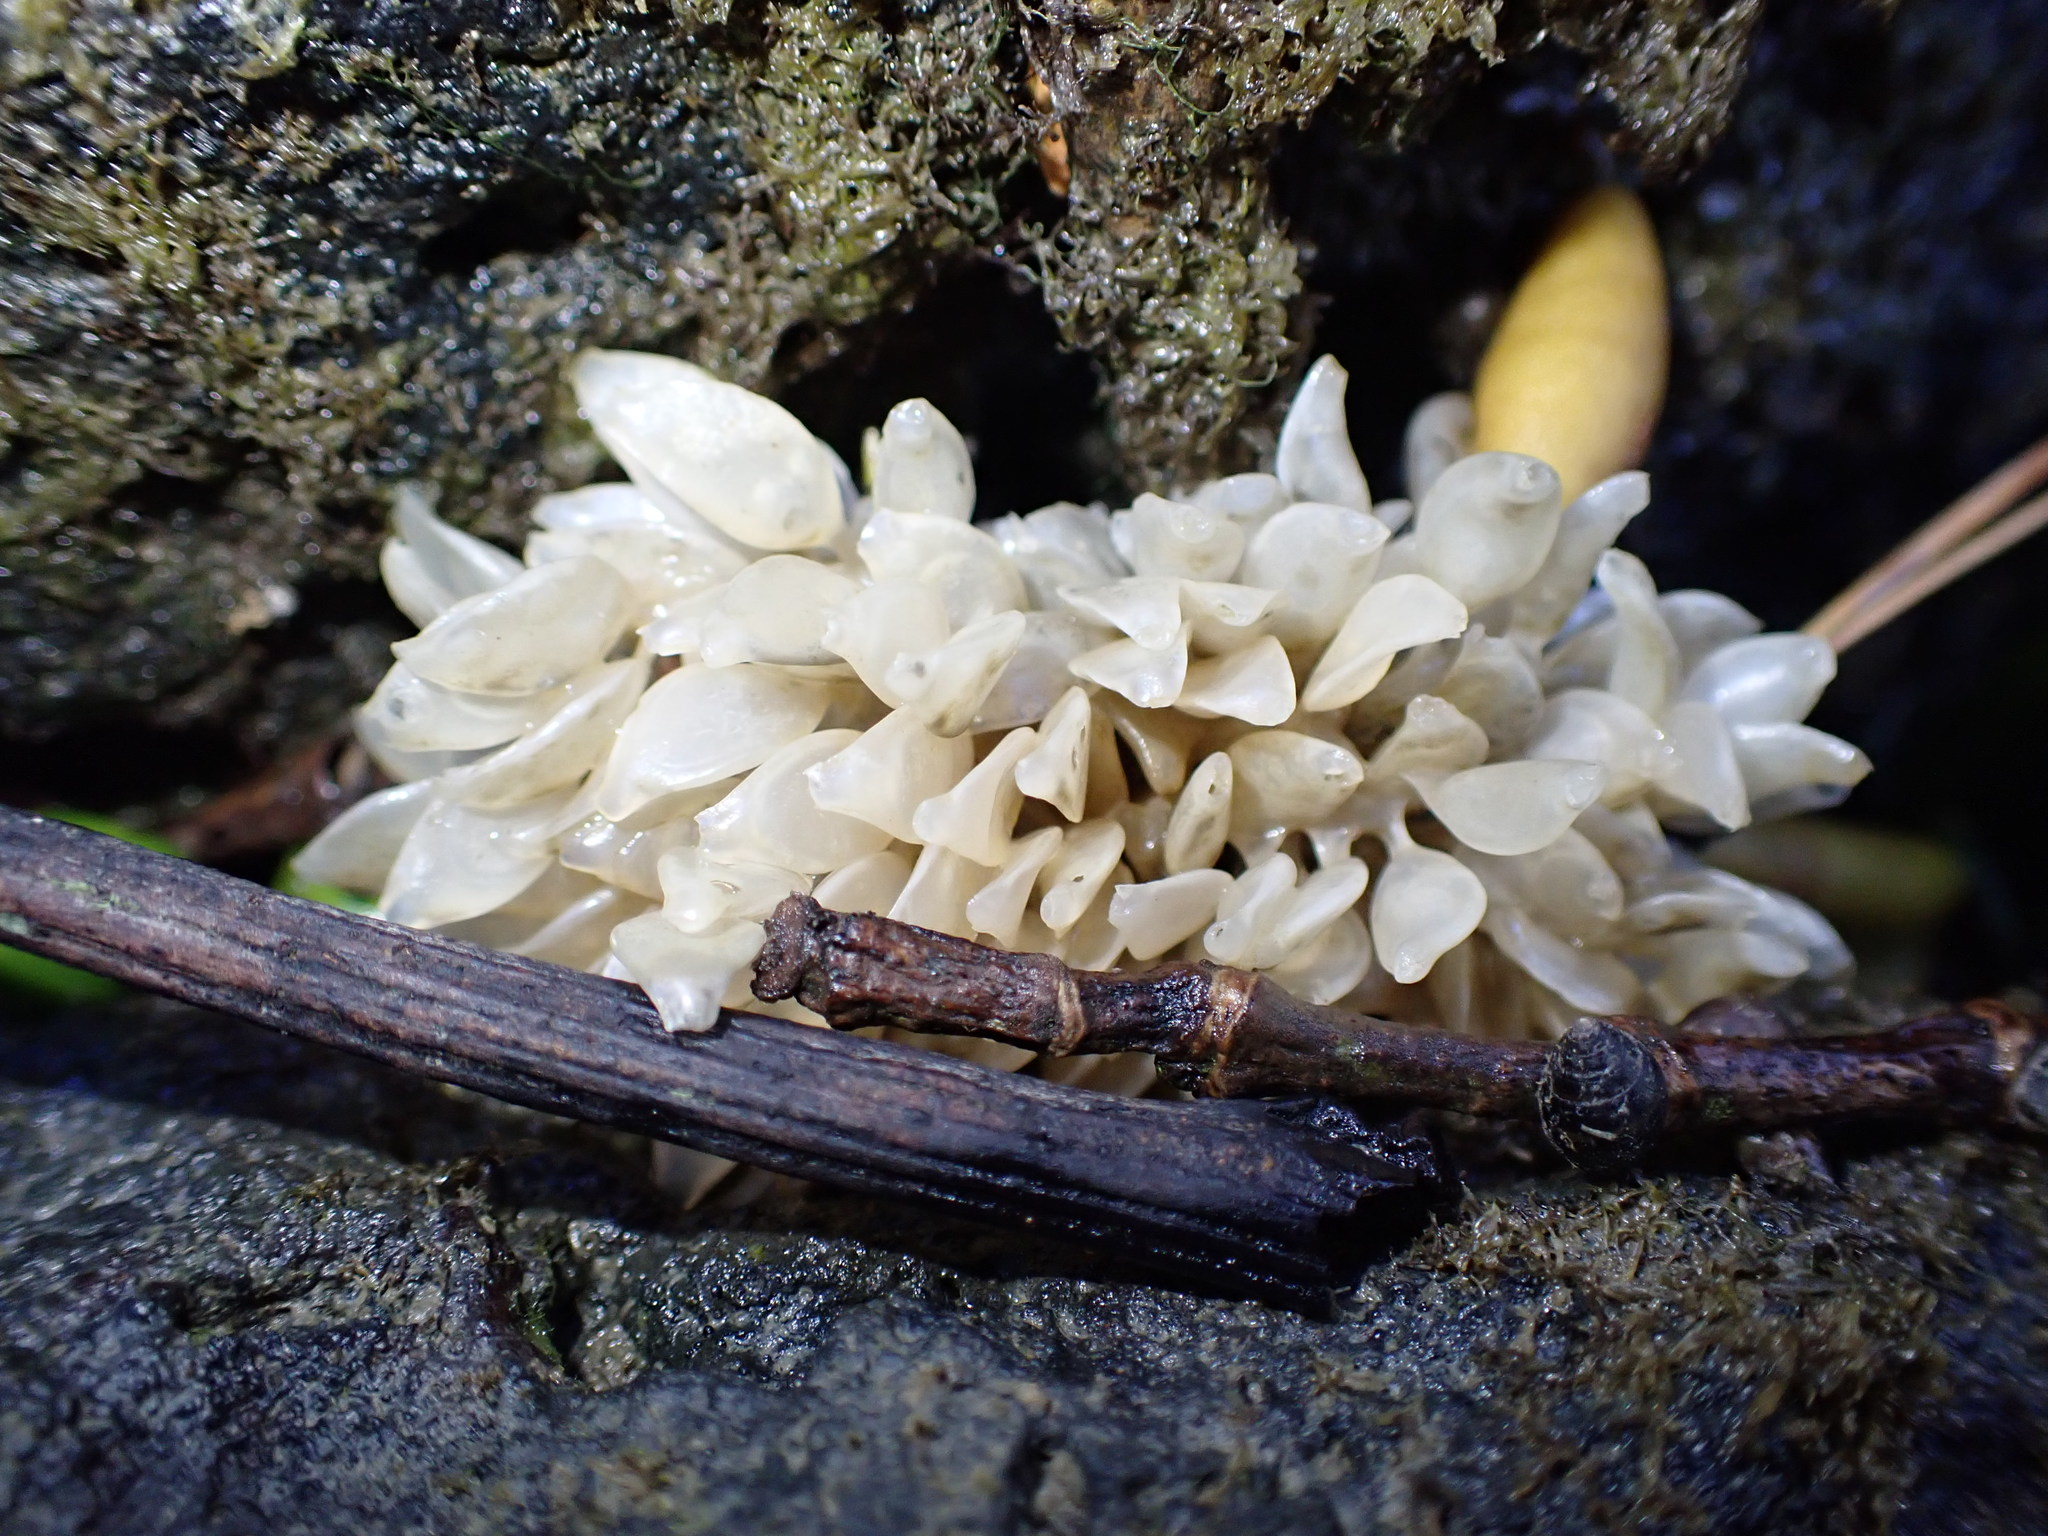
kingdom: Animalia
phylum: Mollusca
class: Gastropoda
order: Neogastropoda
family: Cominellidae
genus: Cominella
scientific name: Cominella adspersa
